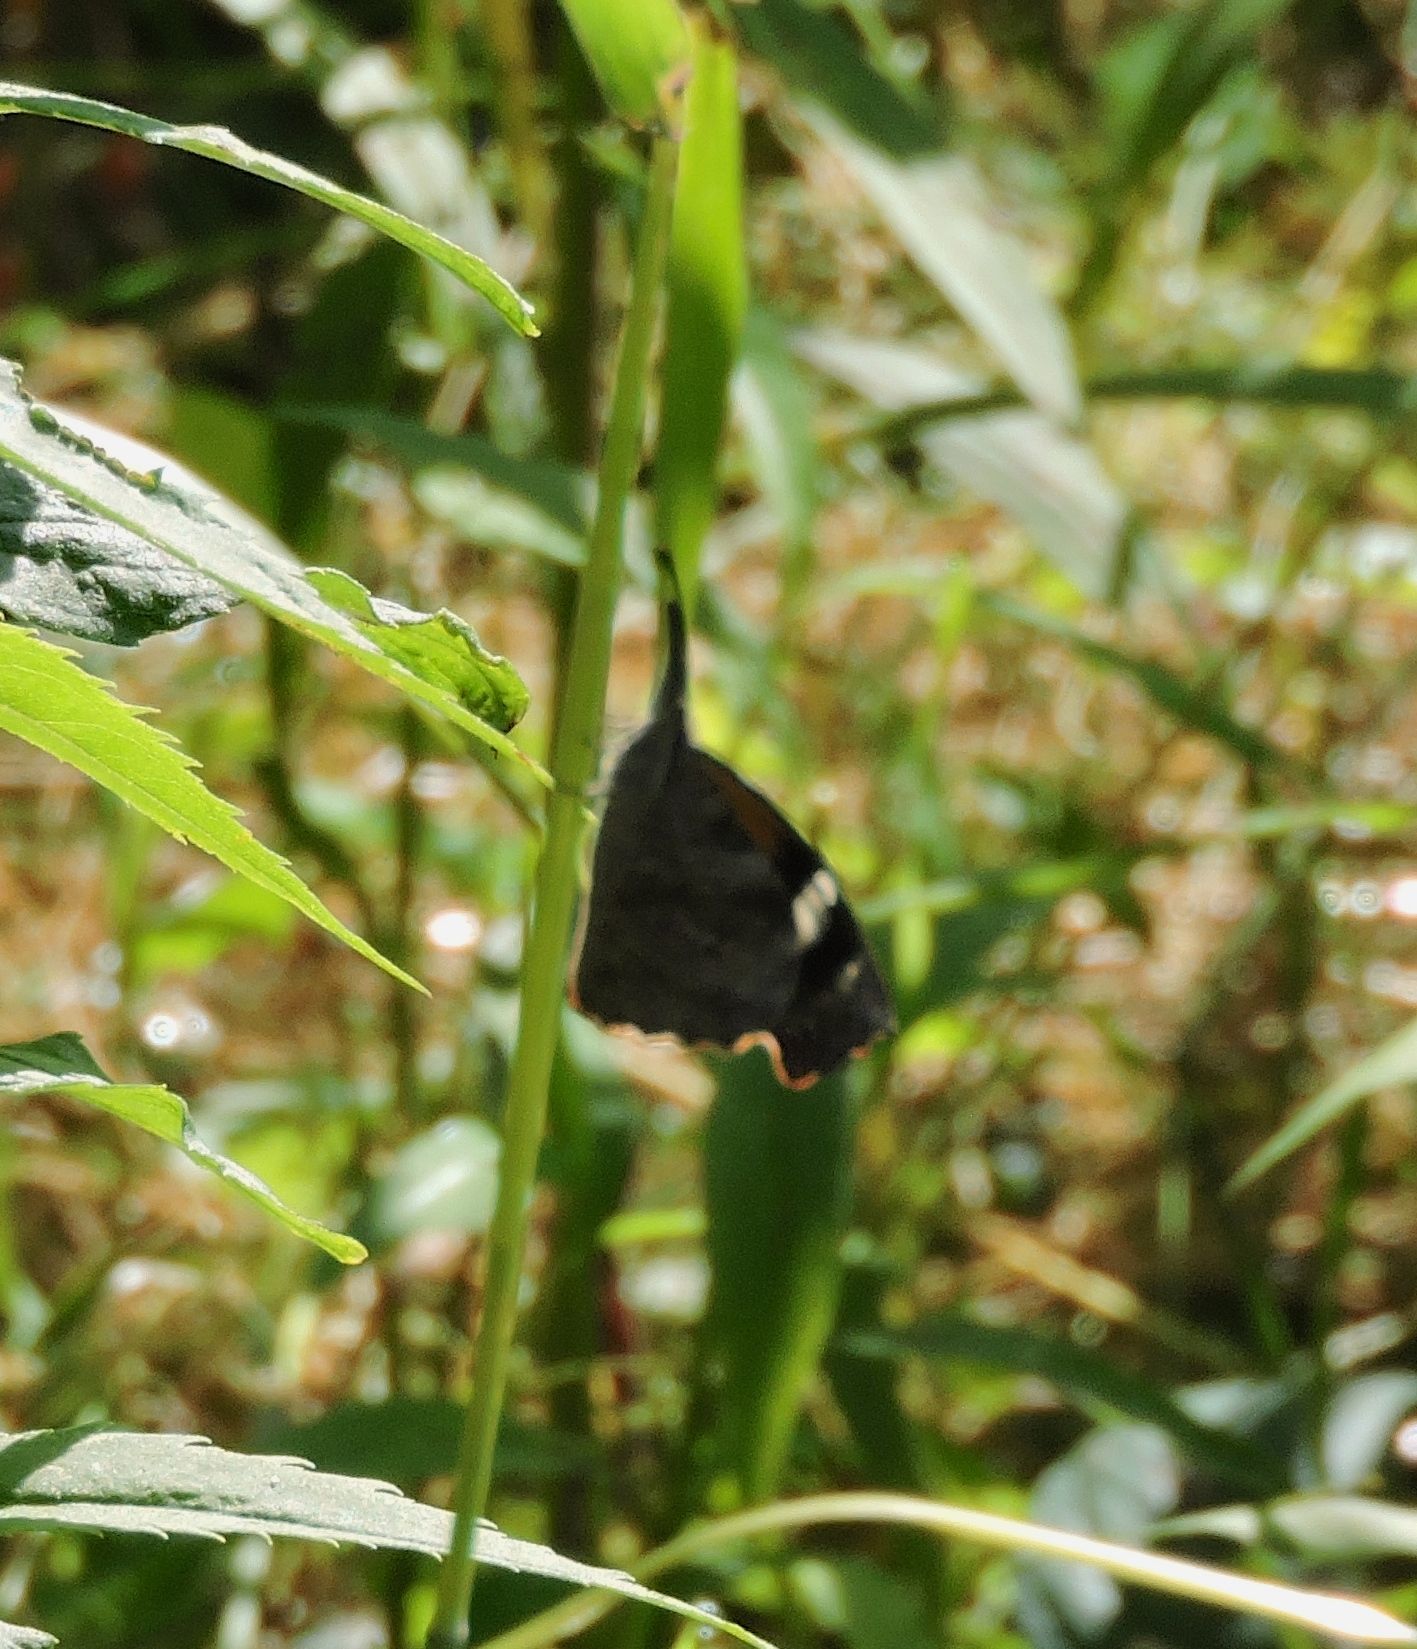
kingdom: Animalia
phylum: Arthropoda
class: Insecta
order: Lepidoptera
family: Nymphalidae
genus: Libytheana
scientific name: Libytheana carinenta
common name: American snout
